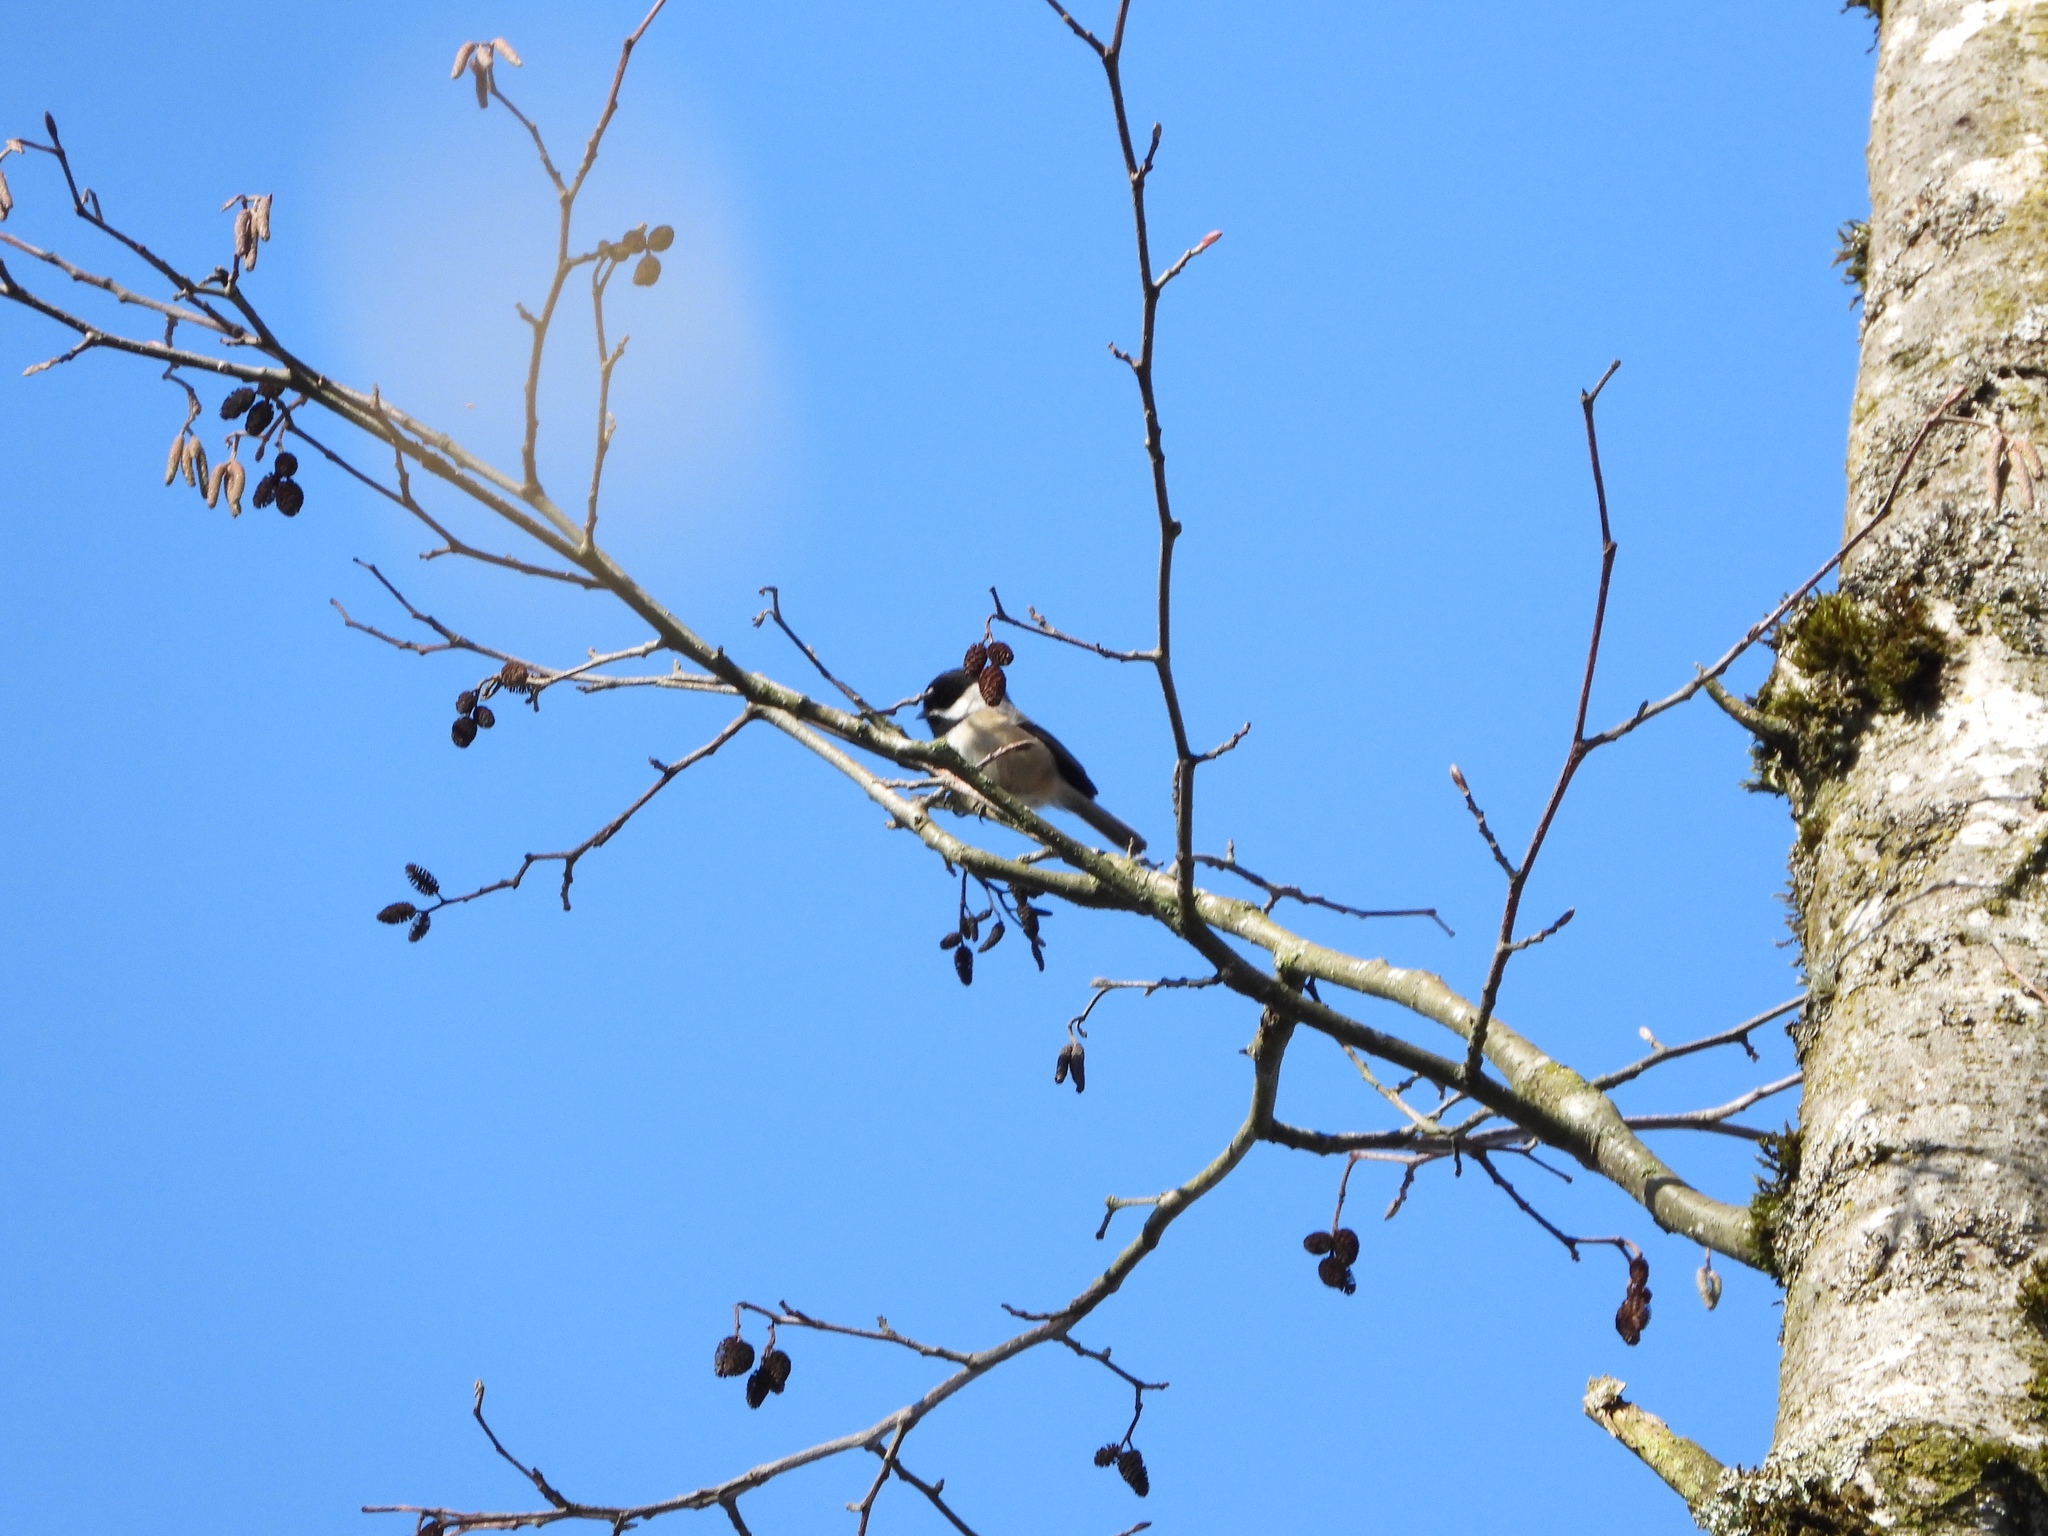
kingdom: Animalia
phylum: Chordata
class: Aves
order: Passeriformes
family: Paridae
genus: Poecile
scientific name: Poecile atricapillus
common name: Black-capped chickadee
